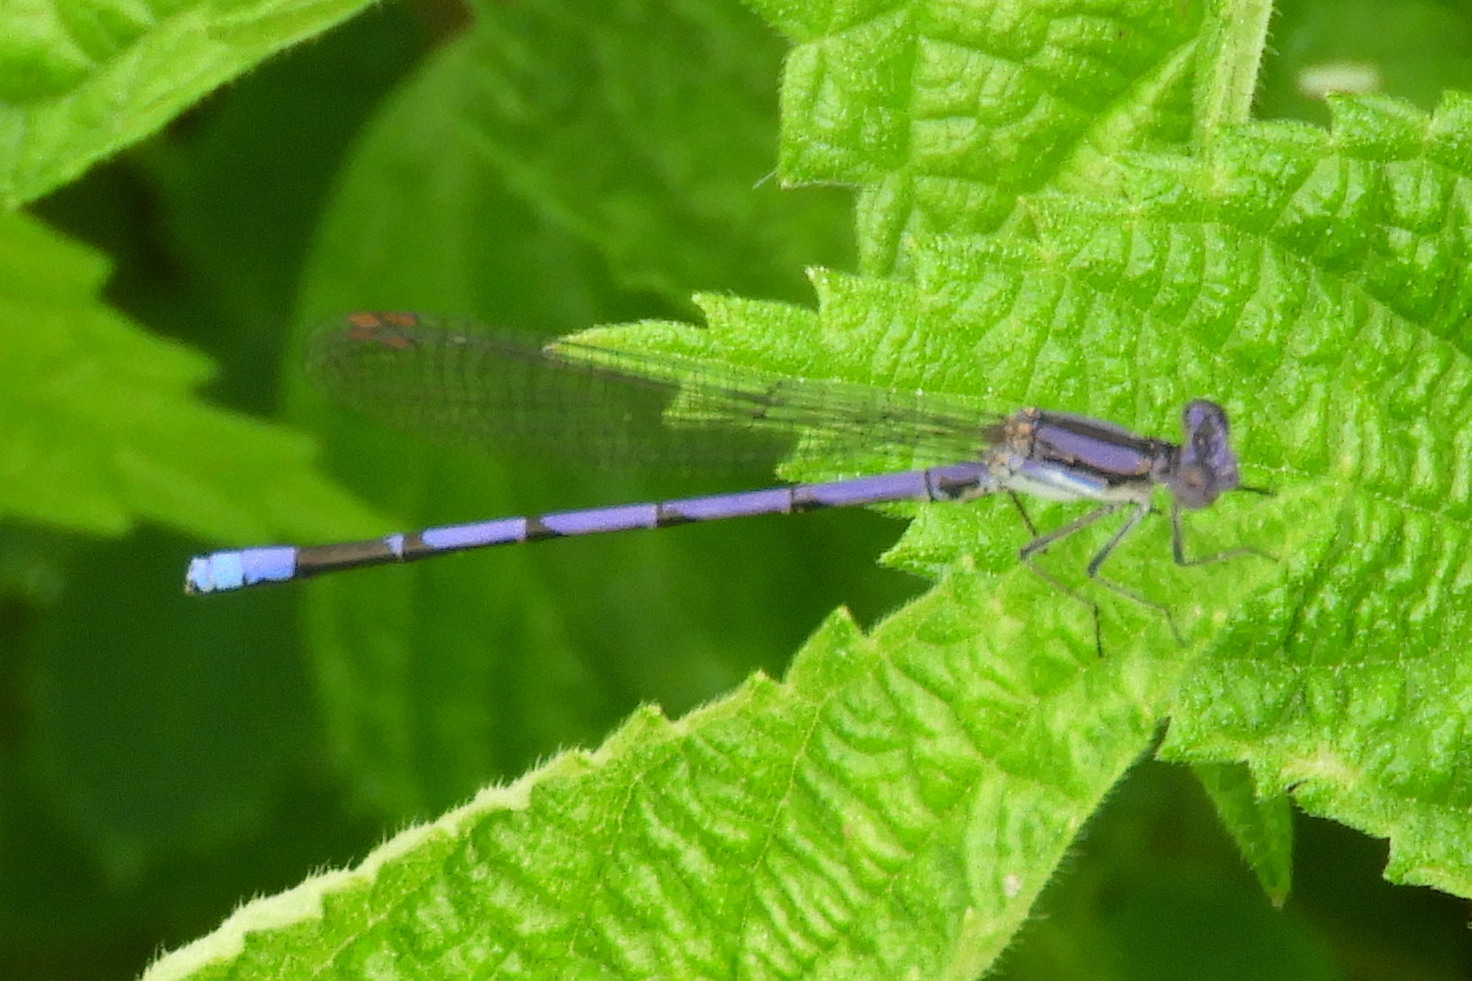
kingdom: Animalia
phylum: Arthropoda
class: Insecta
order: Odonata
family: Coenagrionidae
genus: Argia
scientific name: Argia fumipennis
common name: Variable dancer
